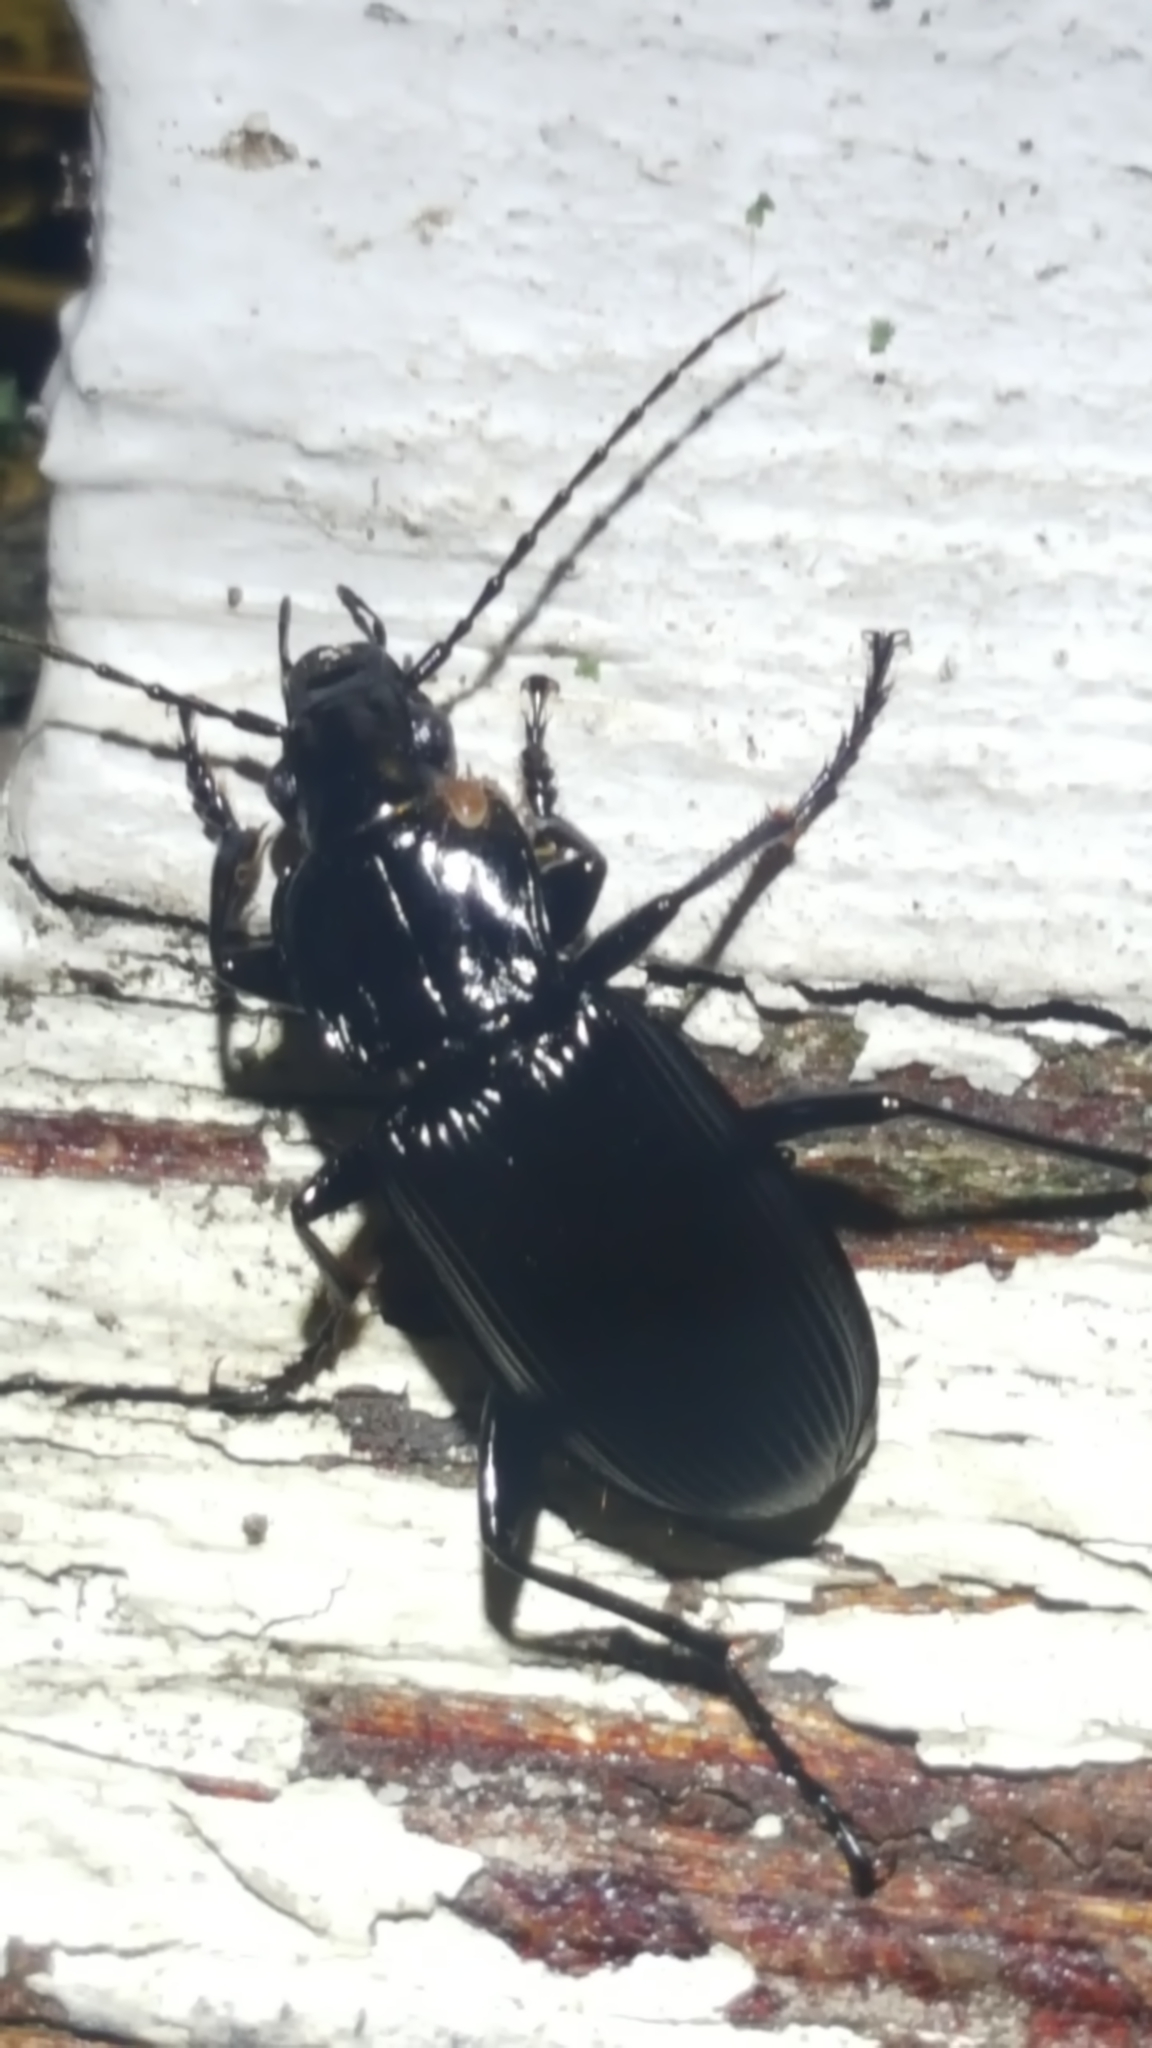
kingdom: Animalia
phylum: Arthropoda
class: Insecta
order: Coleoptera
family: Carabidae
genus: Pterostichus
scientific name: Pterostichus niger
